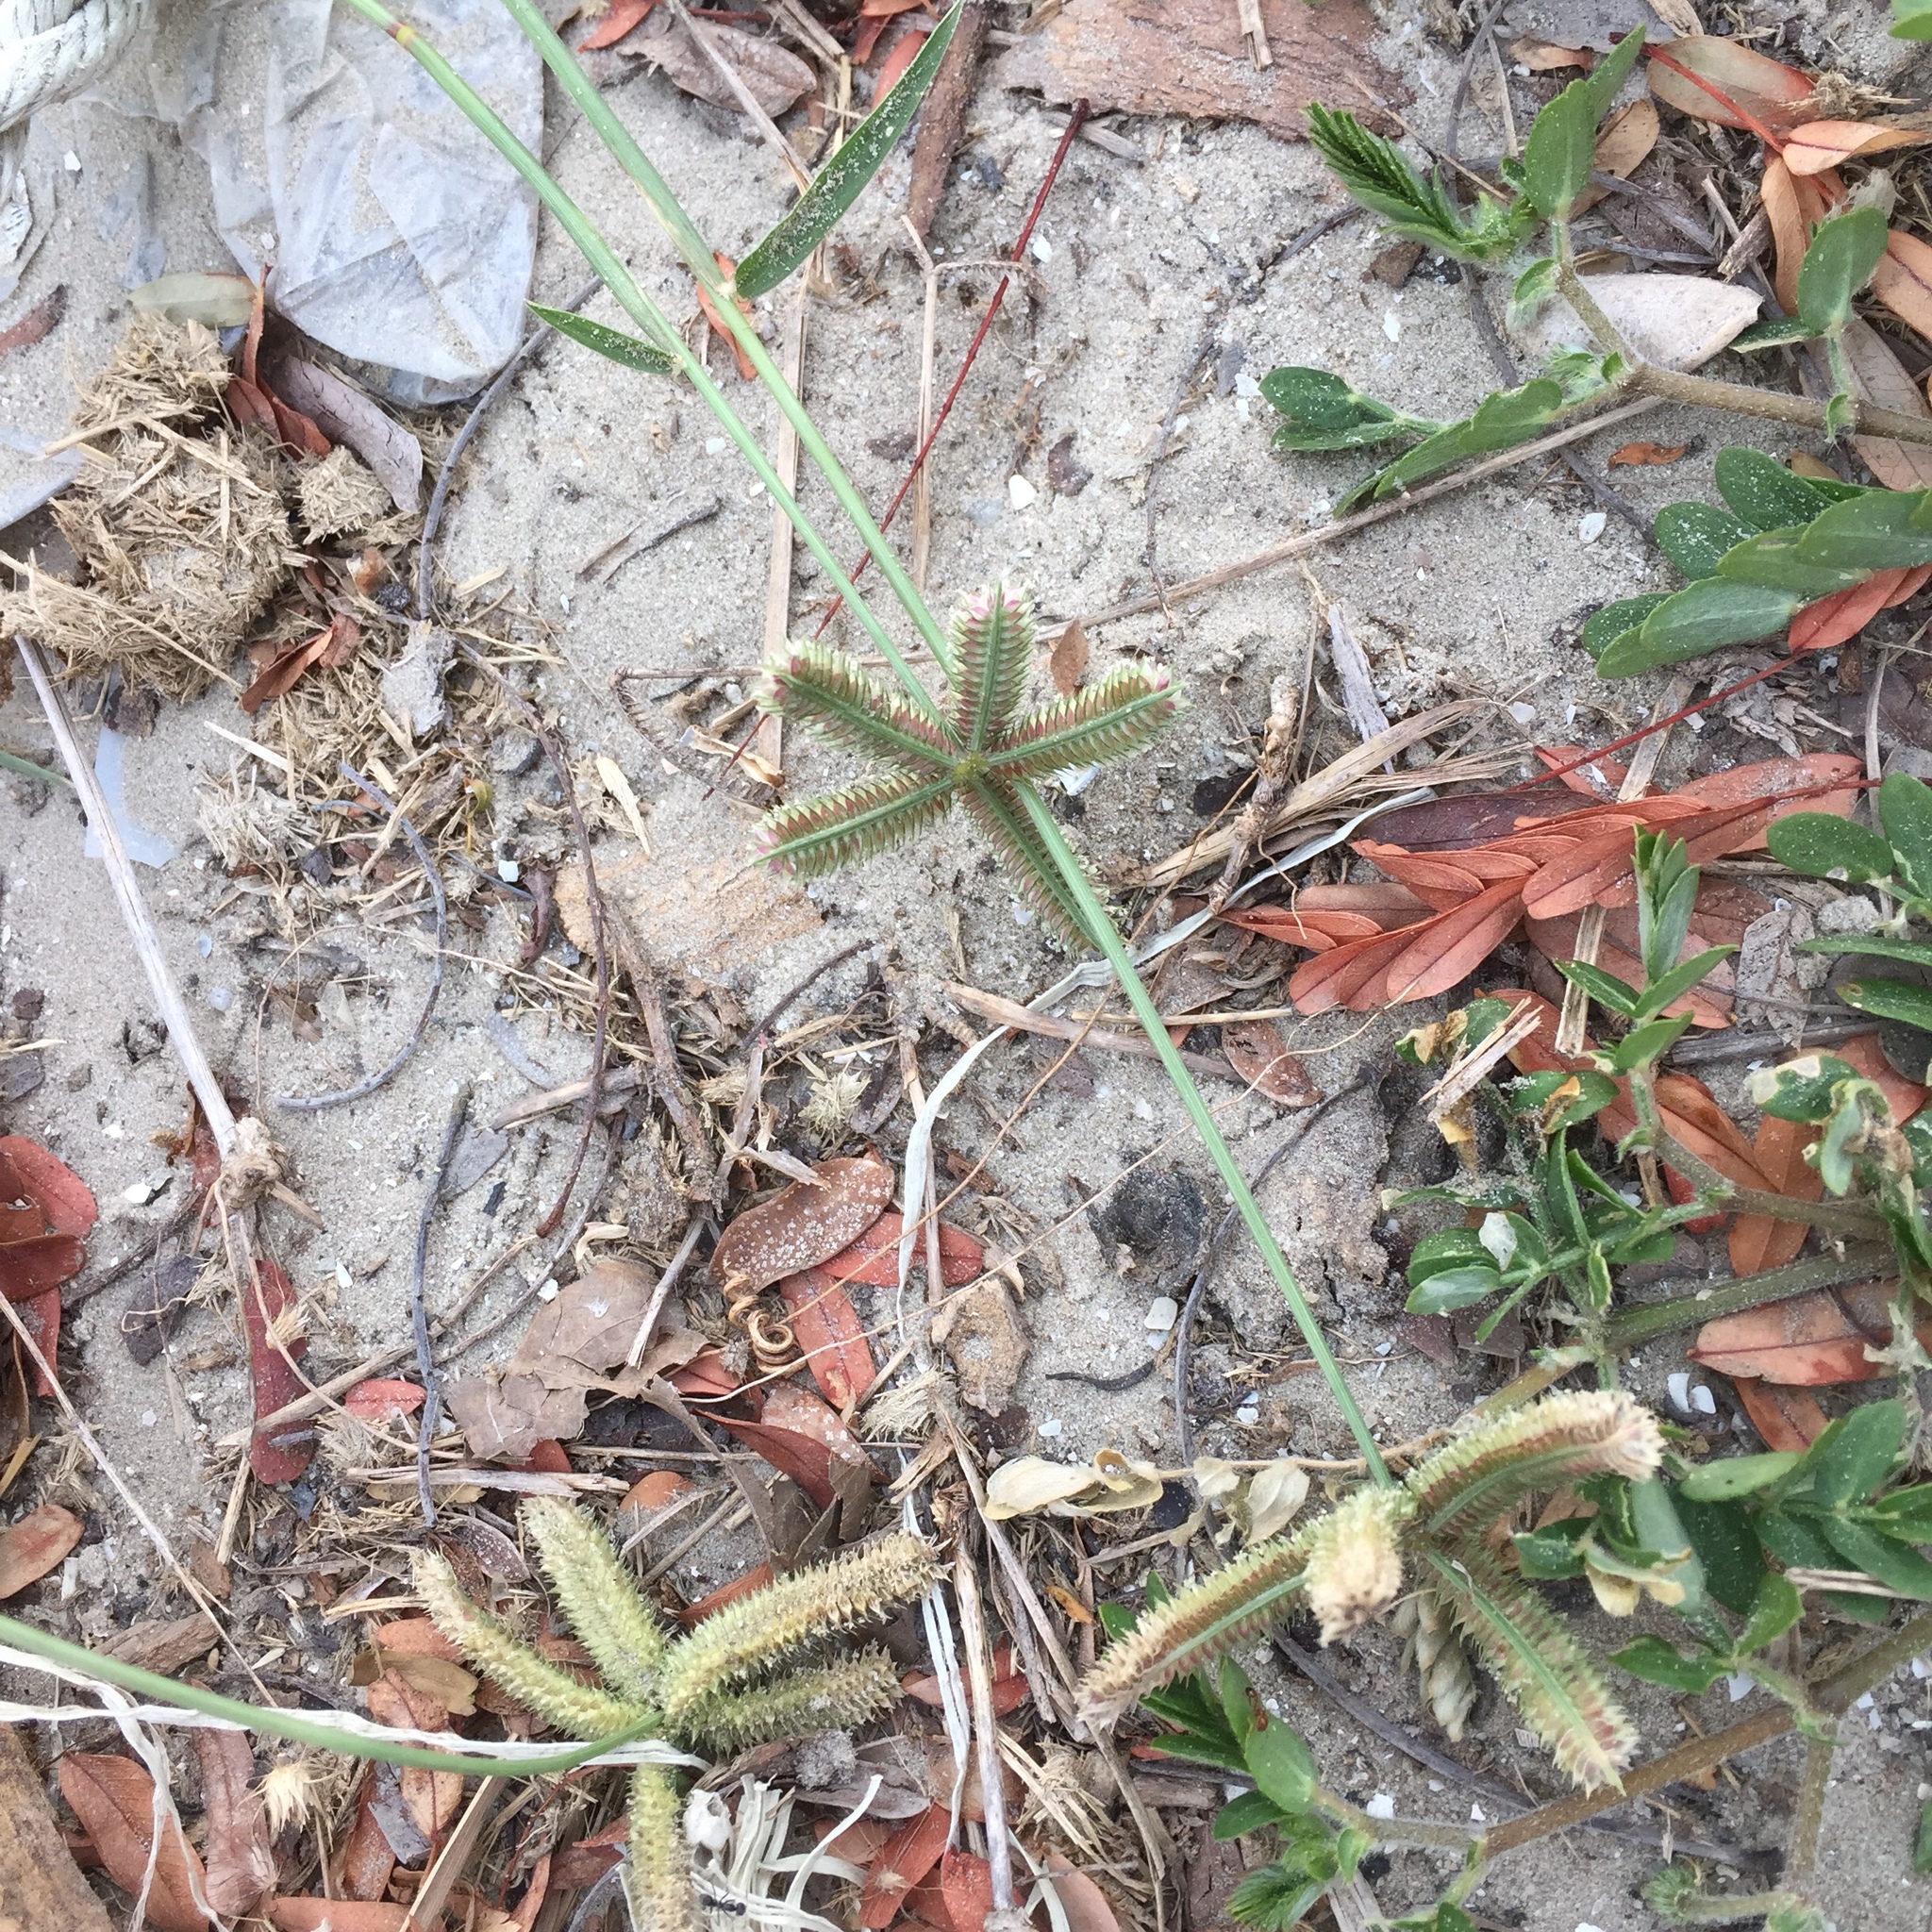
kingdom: Plantae
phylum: Tracheophyta
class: Liliopsida
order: Poales
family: Poaceae
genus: Dactyloctenium
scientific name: Dactyloctenium aegyptium
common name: Egyptian grass
